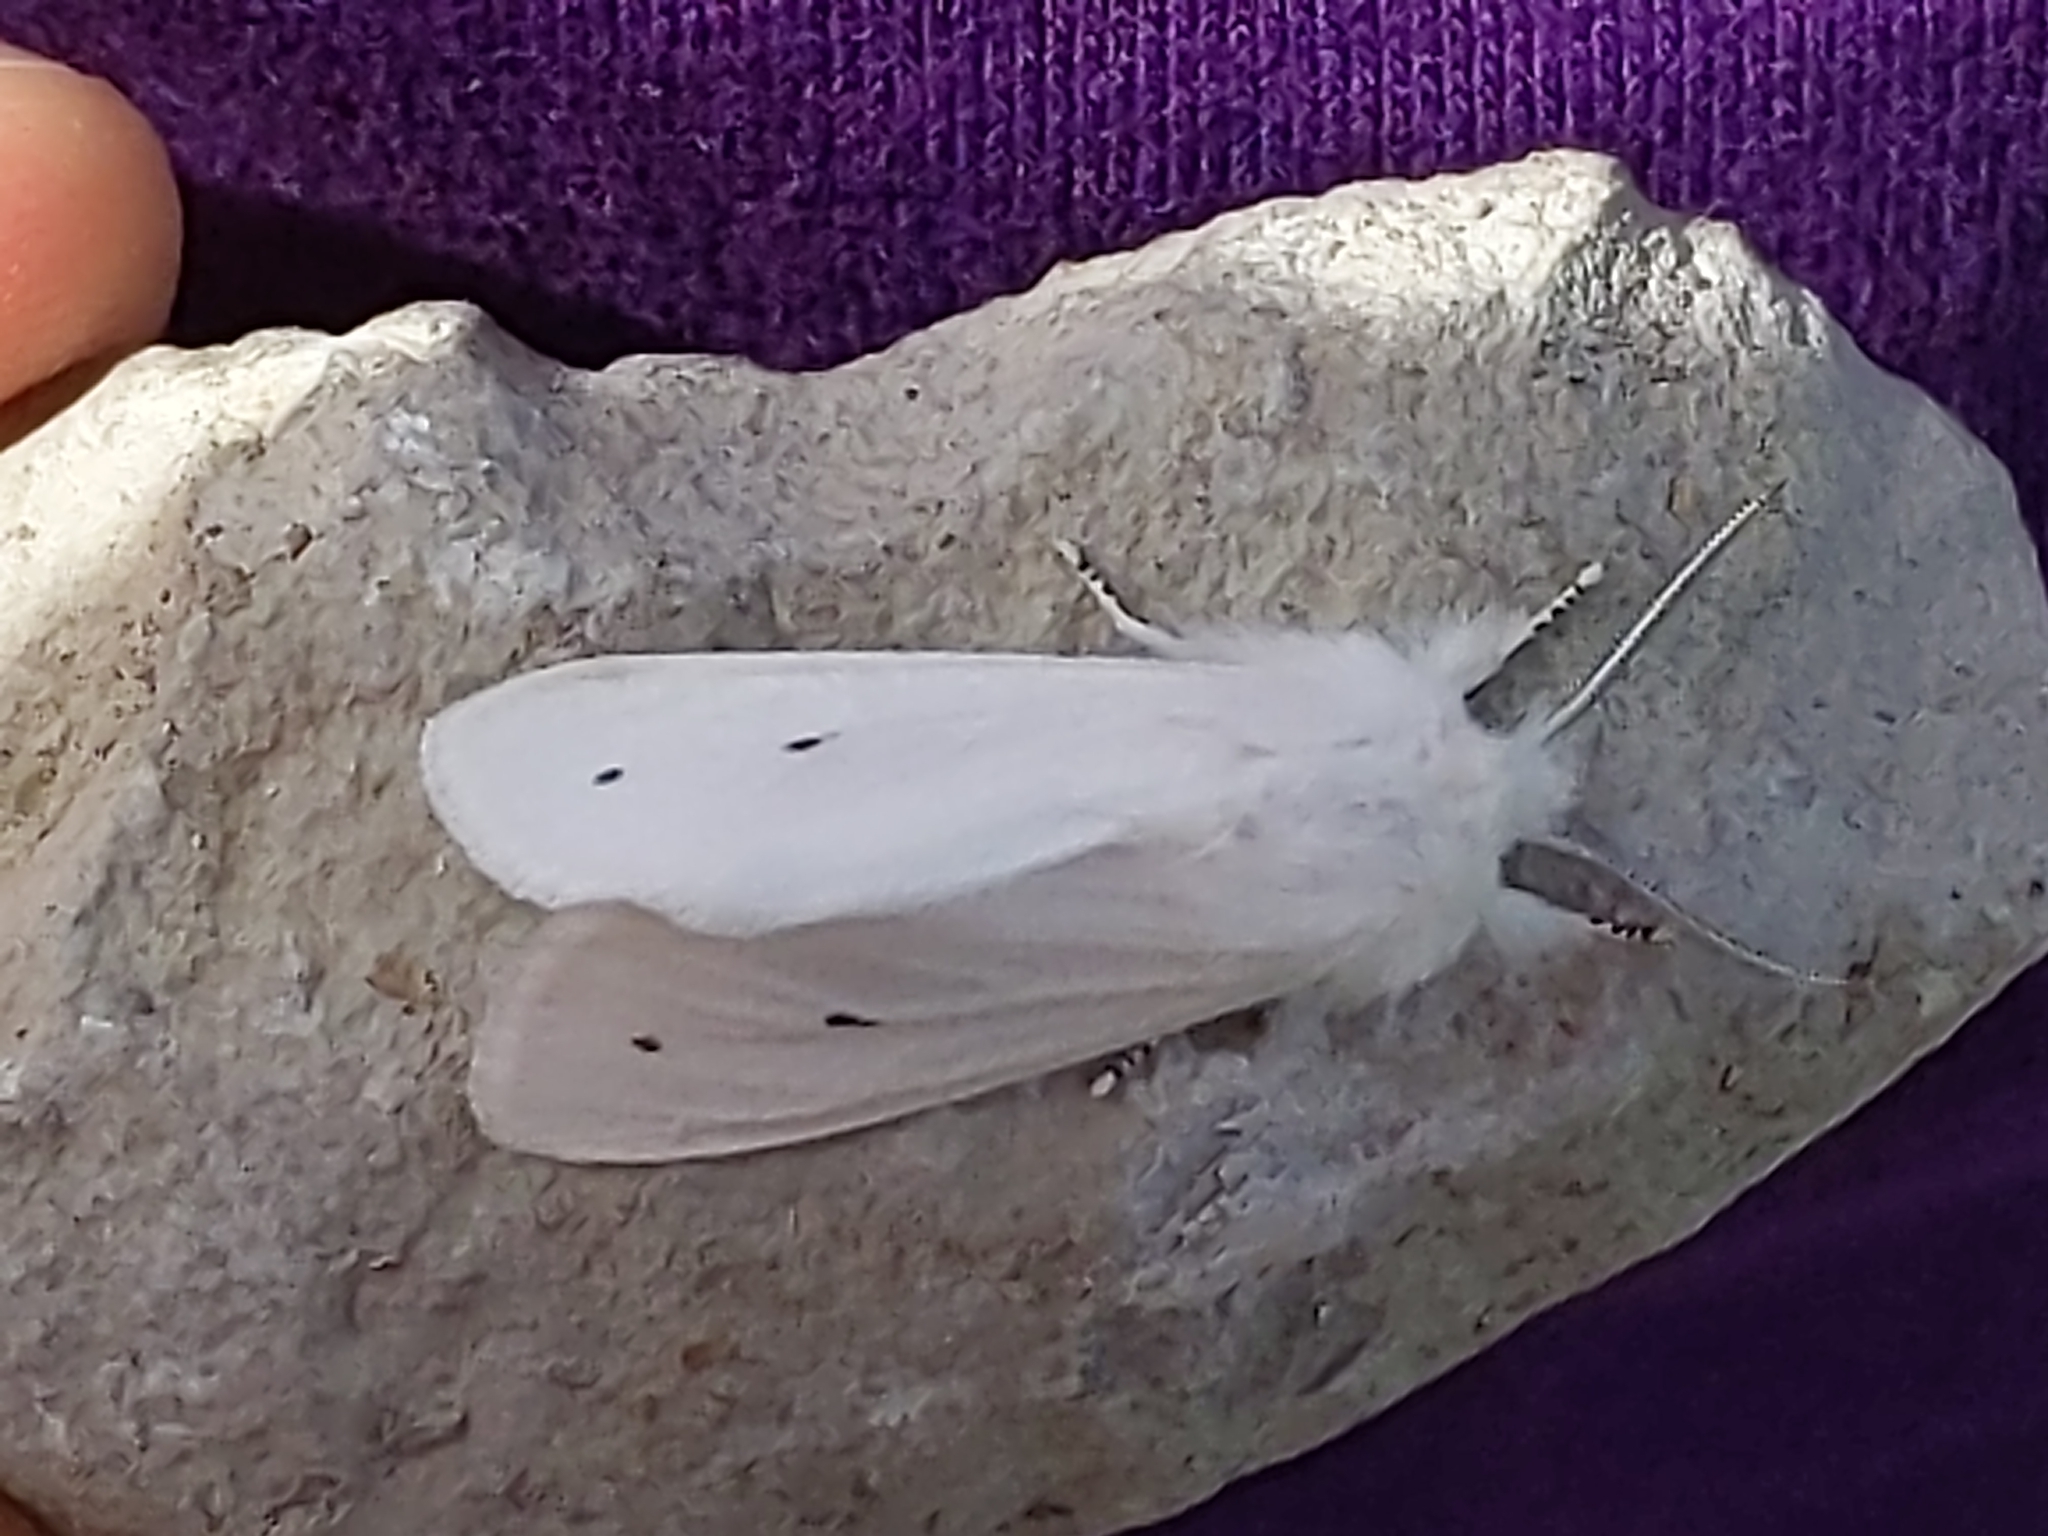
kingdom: Animalia
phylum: Arthropoda
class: Insecta
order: Lepidoptera
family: Erebidae
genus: Spilosoma
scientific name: Spilosoma virginica
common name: Virginia tiger moth
